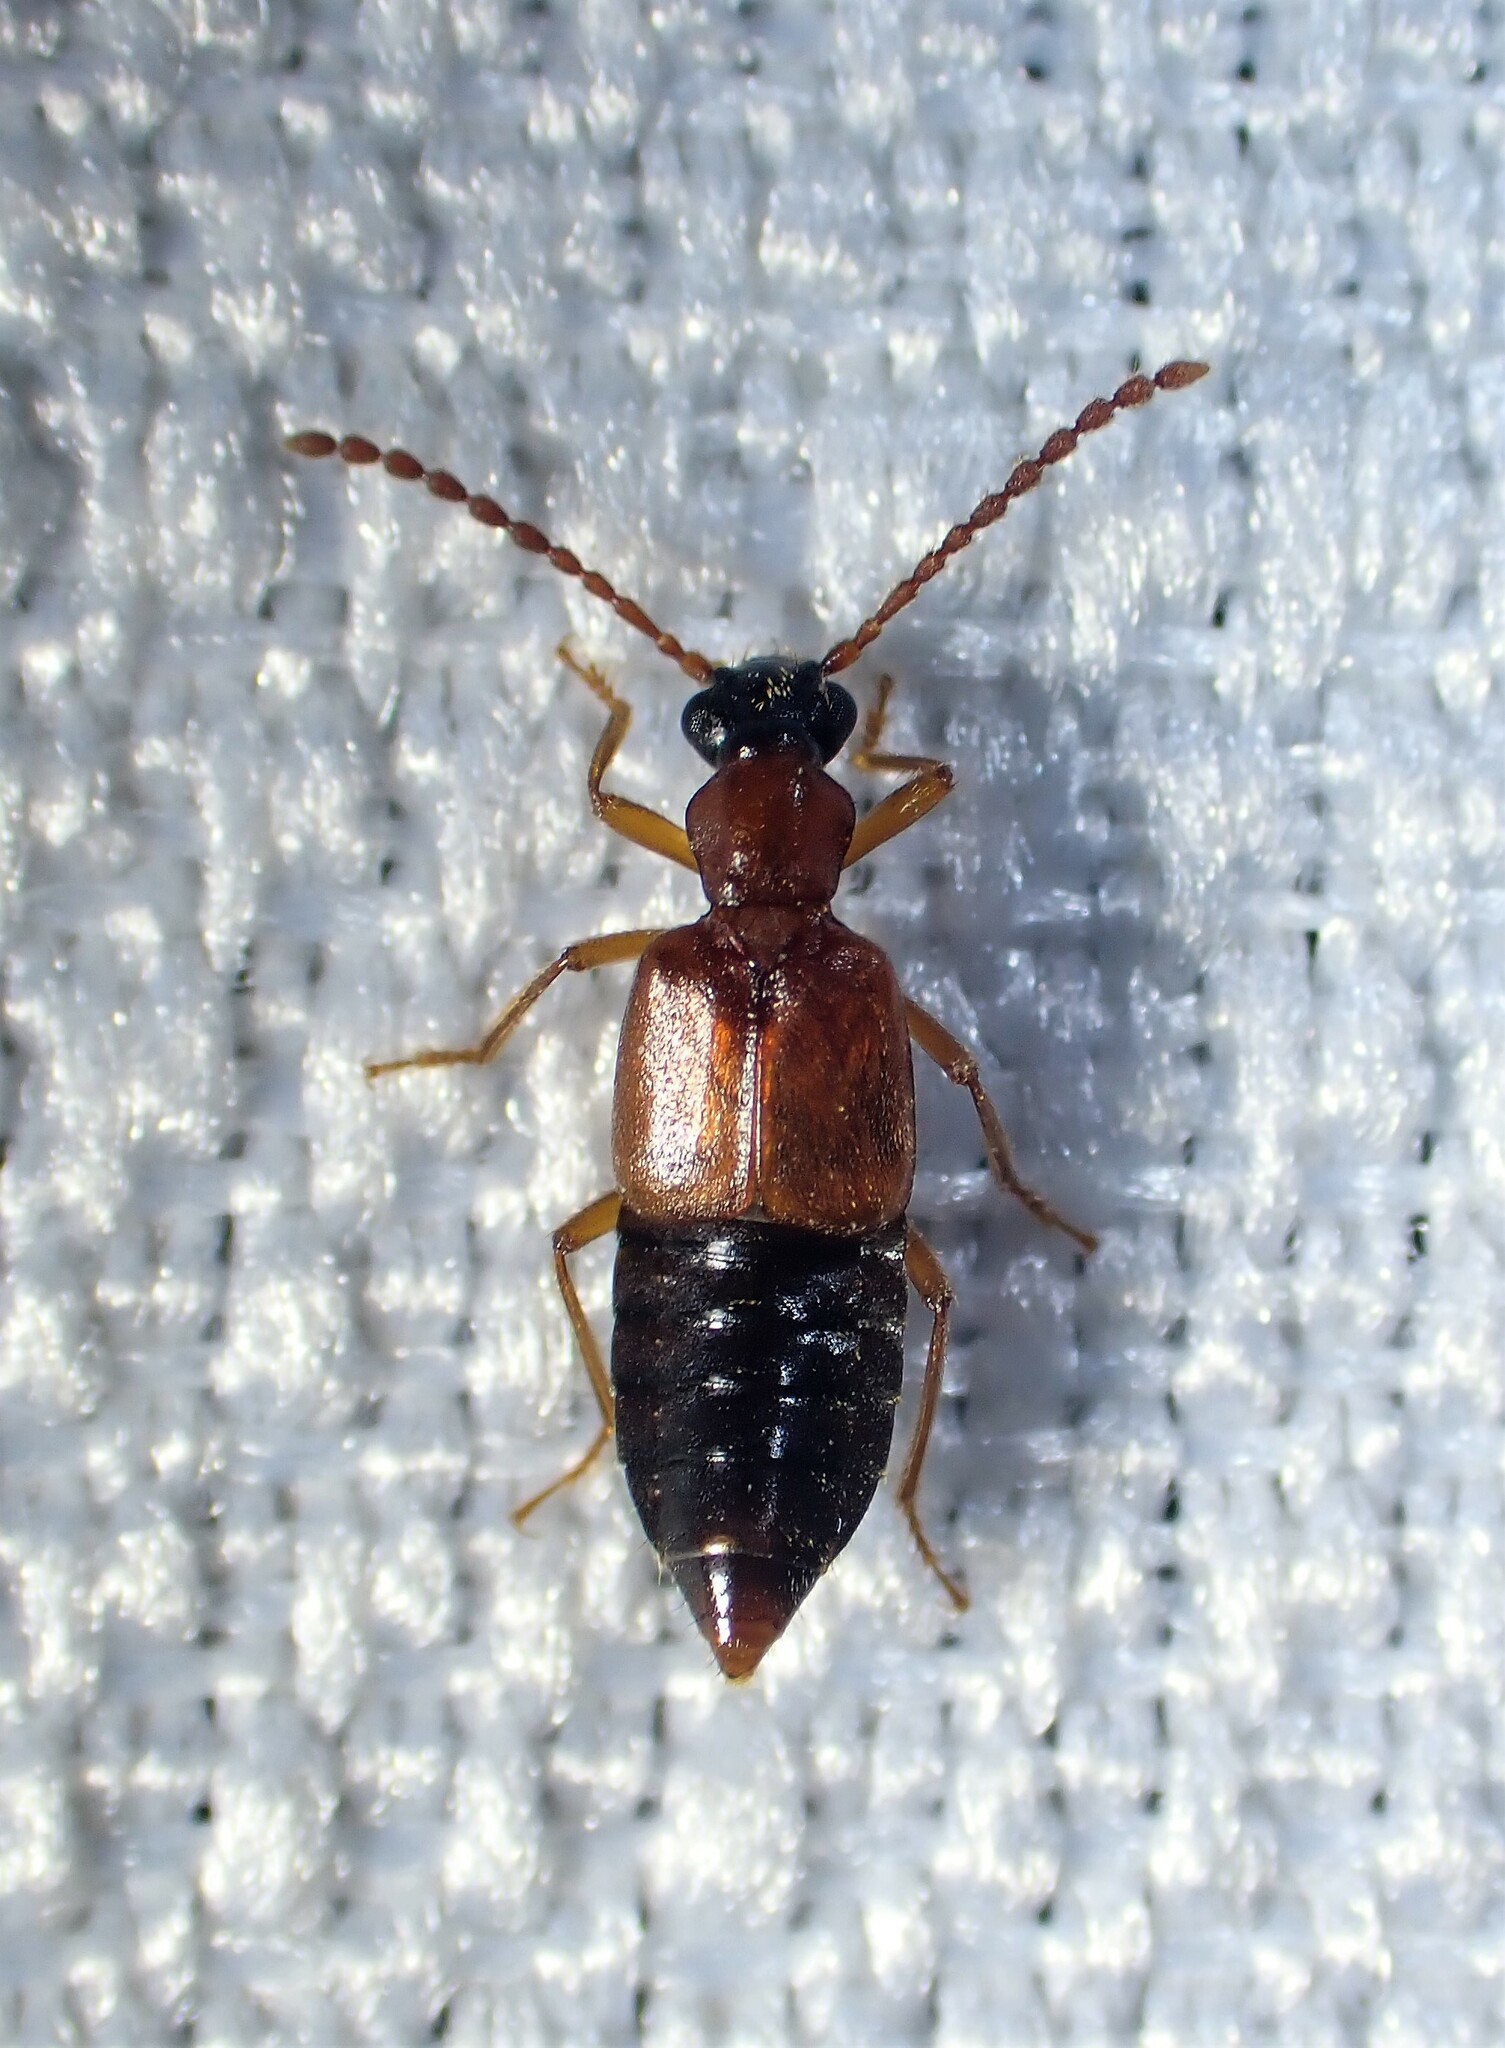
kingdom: Animalia
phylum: Arthropoda
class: Insecta
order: Coleoptera
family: Staphylinidae
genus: Deleaster
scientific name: Deleaster dichrous
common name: Rove beetle
